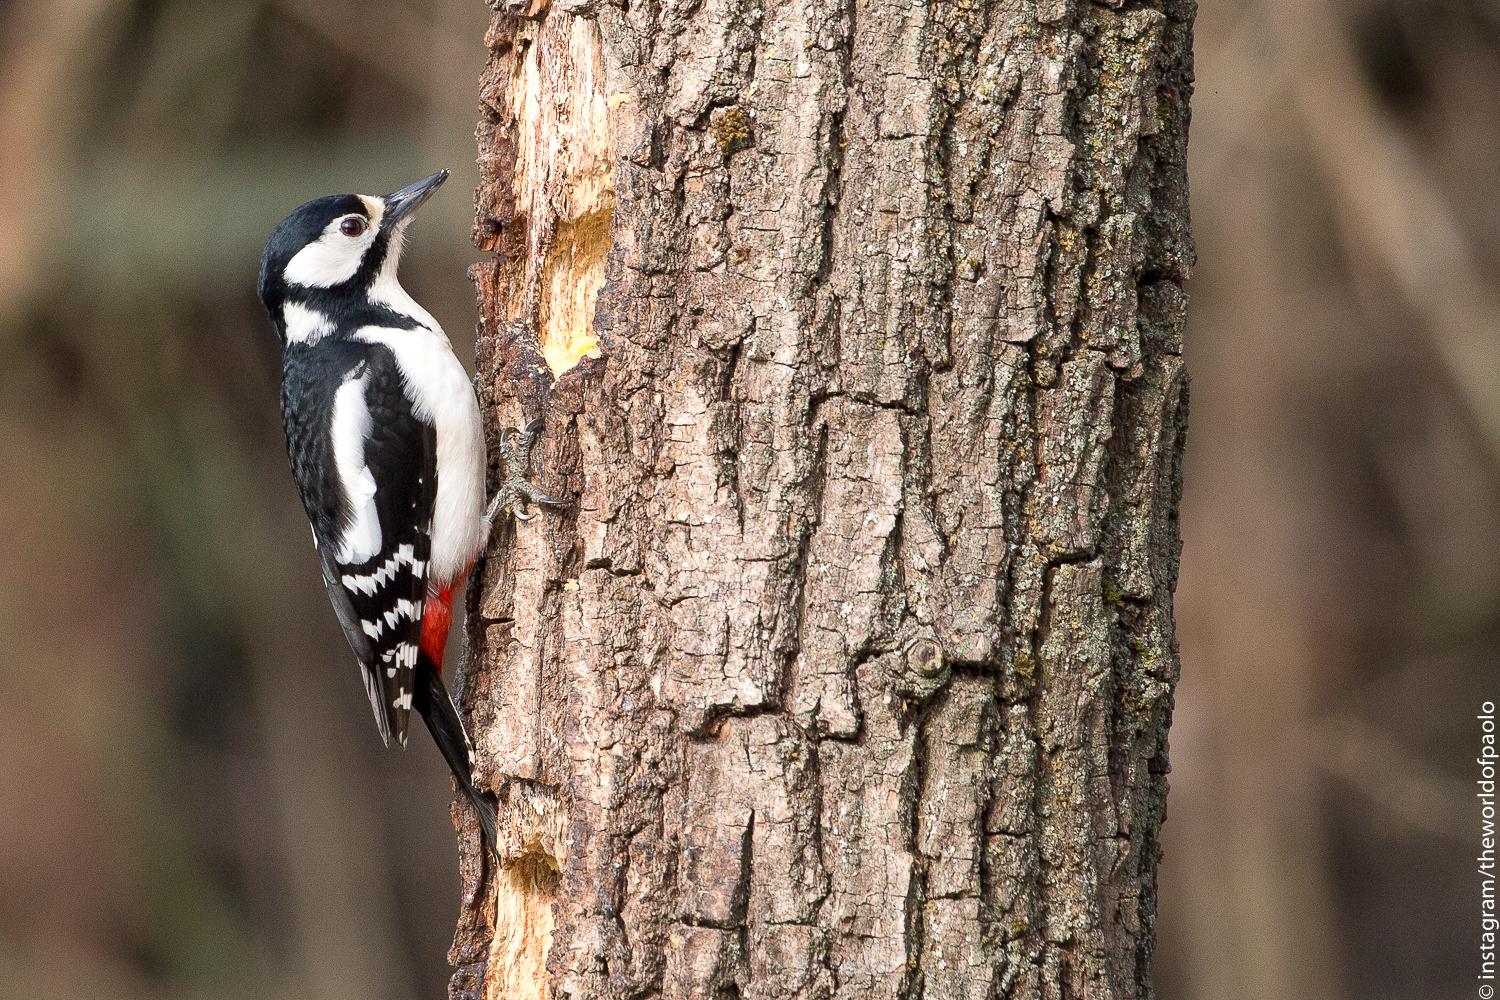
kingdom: Animalia
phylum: Chordata
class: Aves
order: Piciformes
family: Picidae
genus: Dendrocopos
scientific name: Dendrocopos major
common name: Great spotted woodpecker
